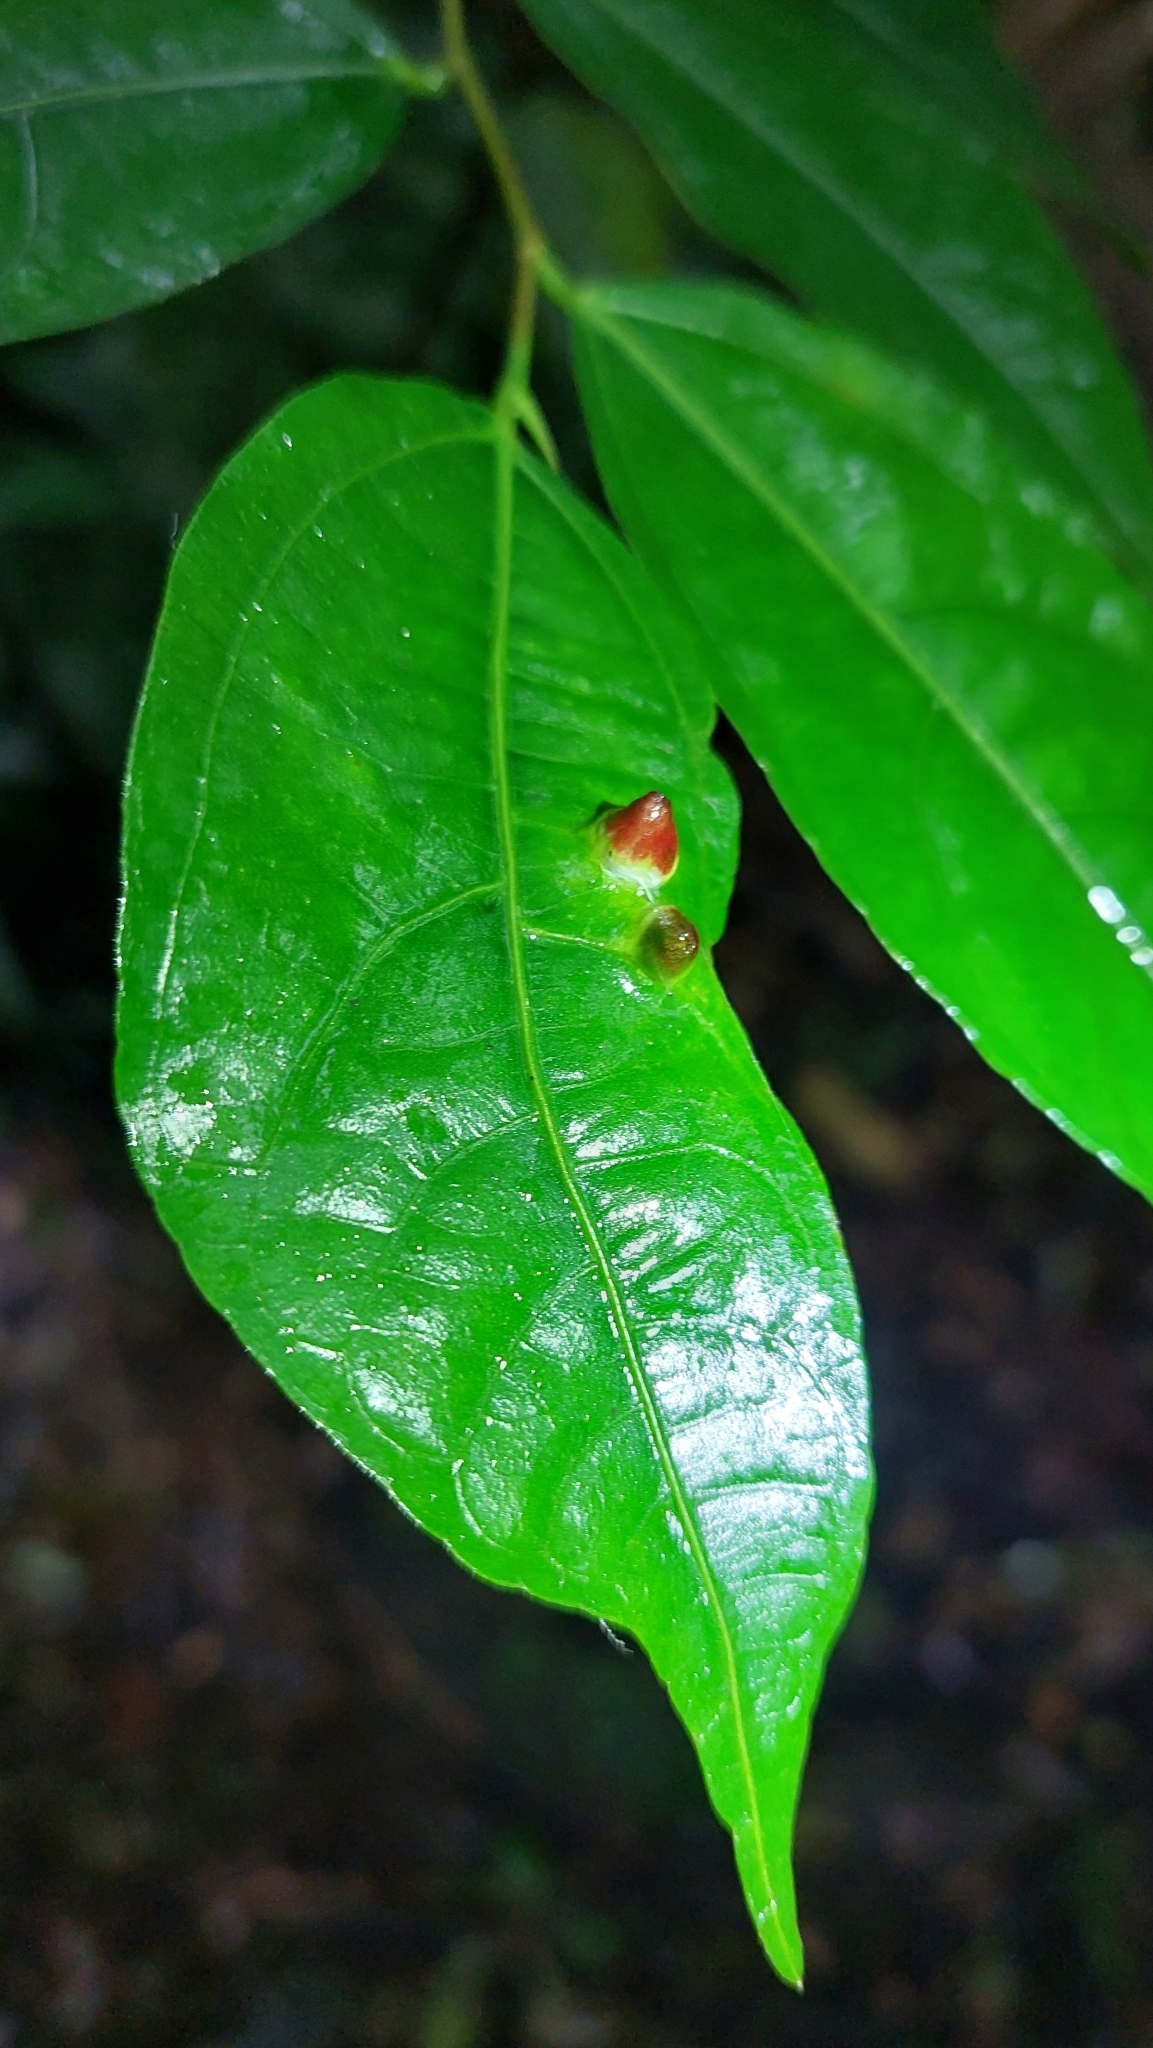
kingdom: Plantae
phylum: Tracheophyta
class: Magnoliopsida
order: Rosales
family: Moraceae
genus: Ficus
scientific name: Ficus ampelos
